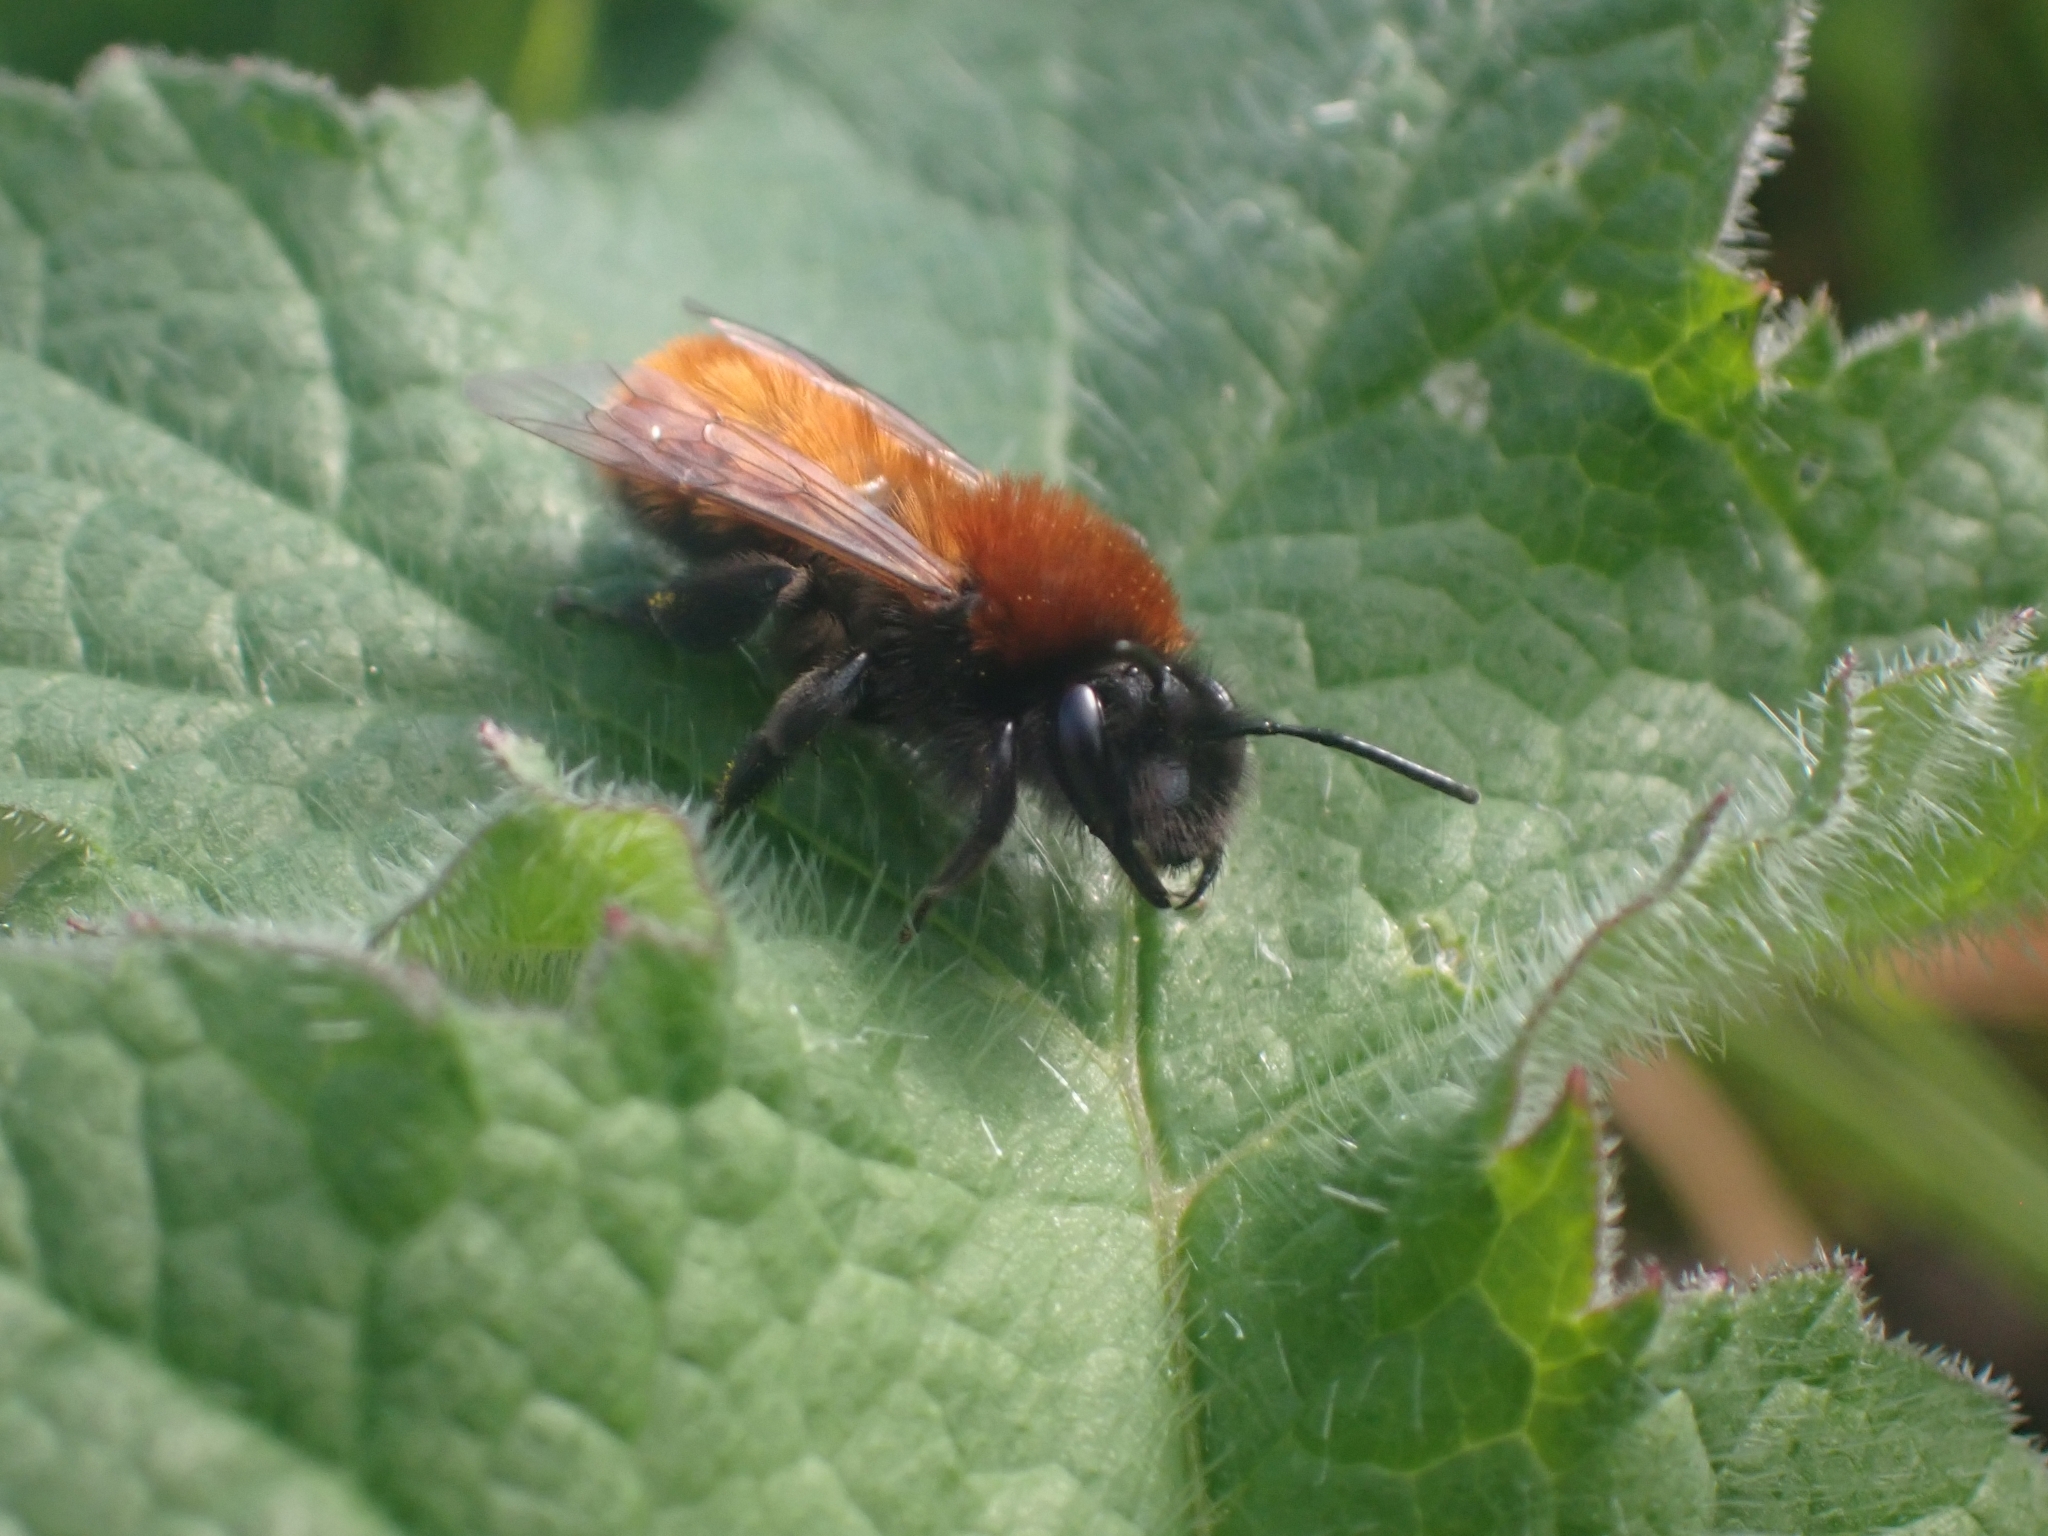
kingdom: Animalia
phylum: Arthropoda
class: Insecta
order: Hymenoptera
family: Andrenidae
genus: Andrena
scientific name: Andrena fulva
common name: Tawny mining bee
